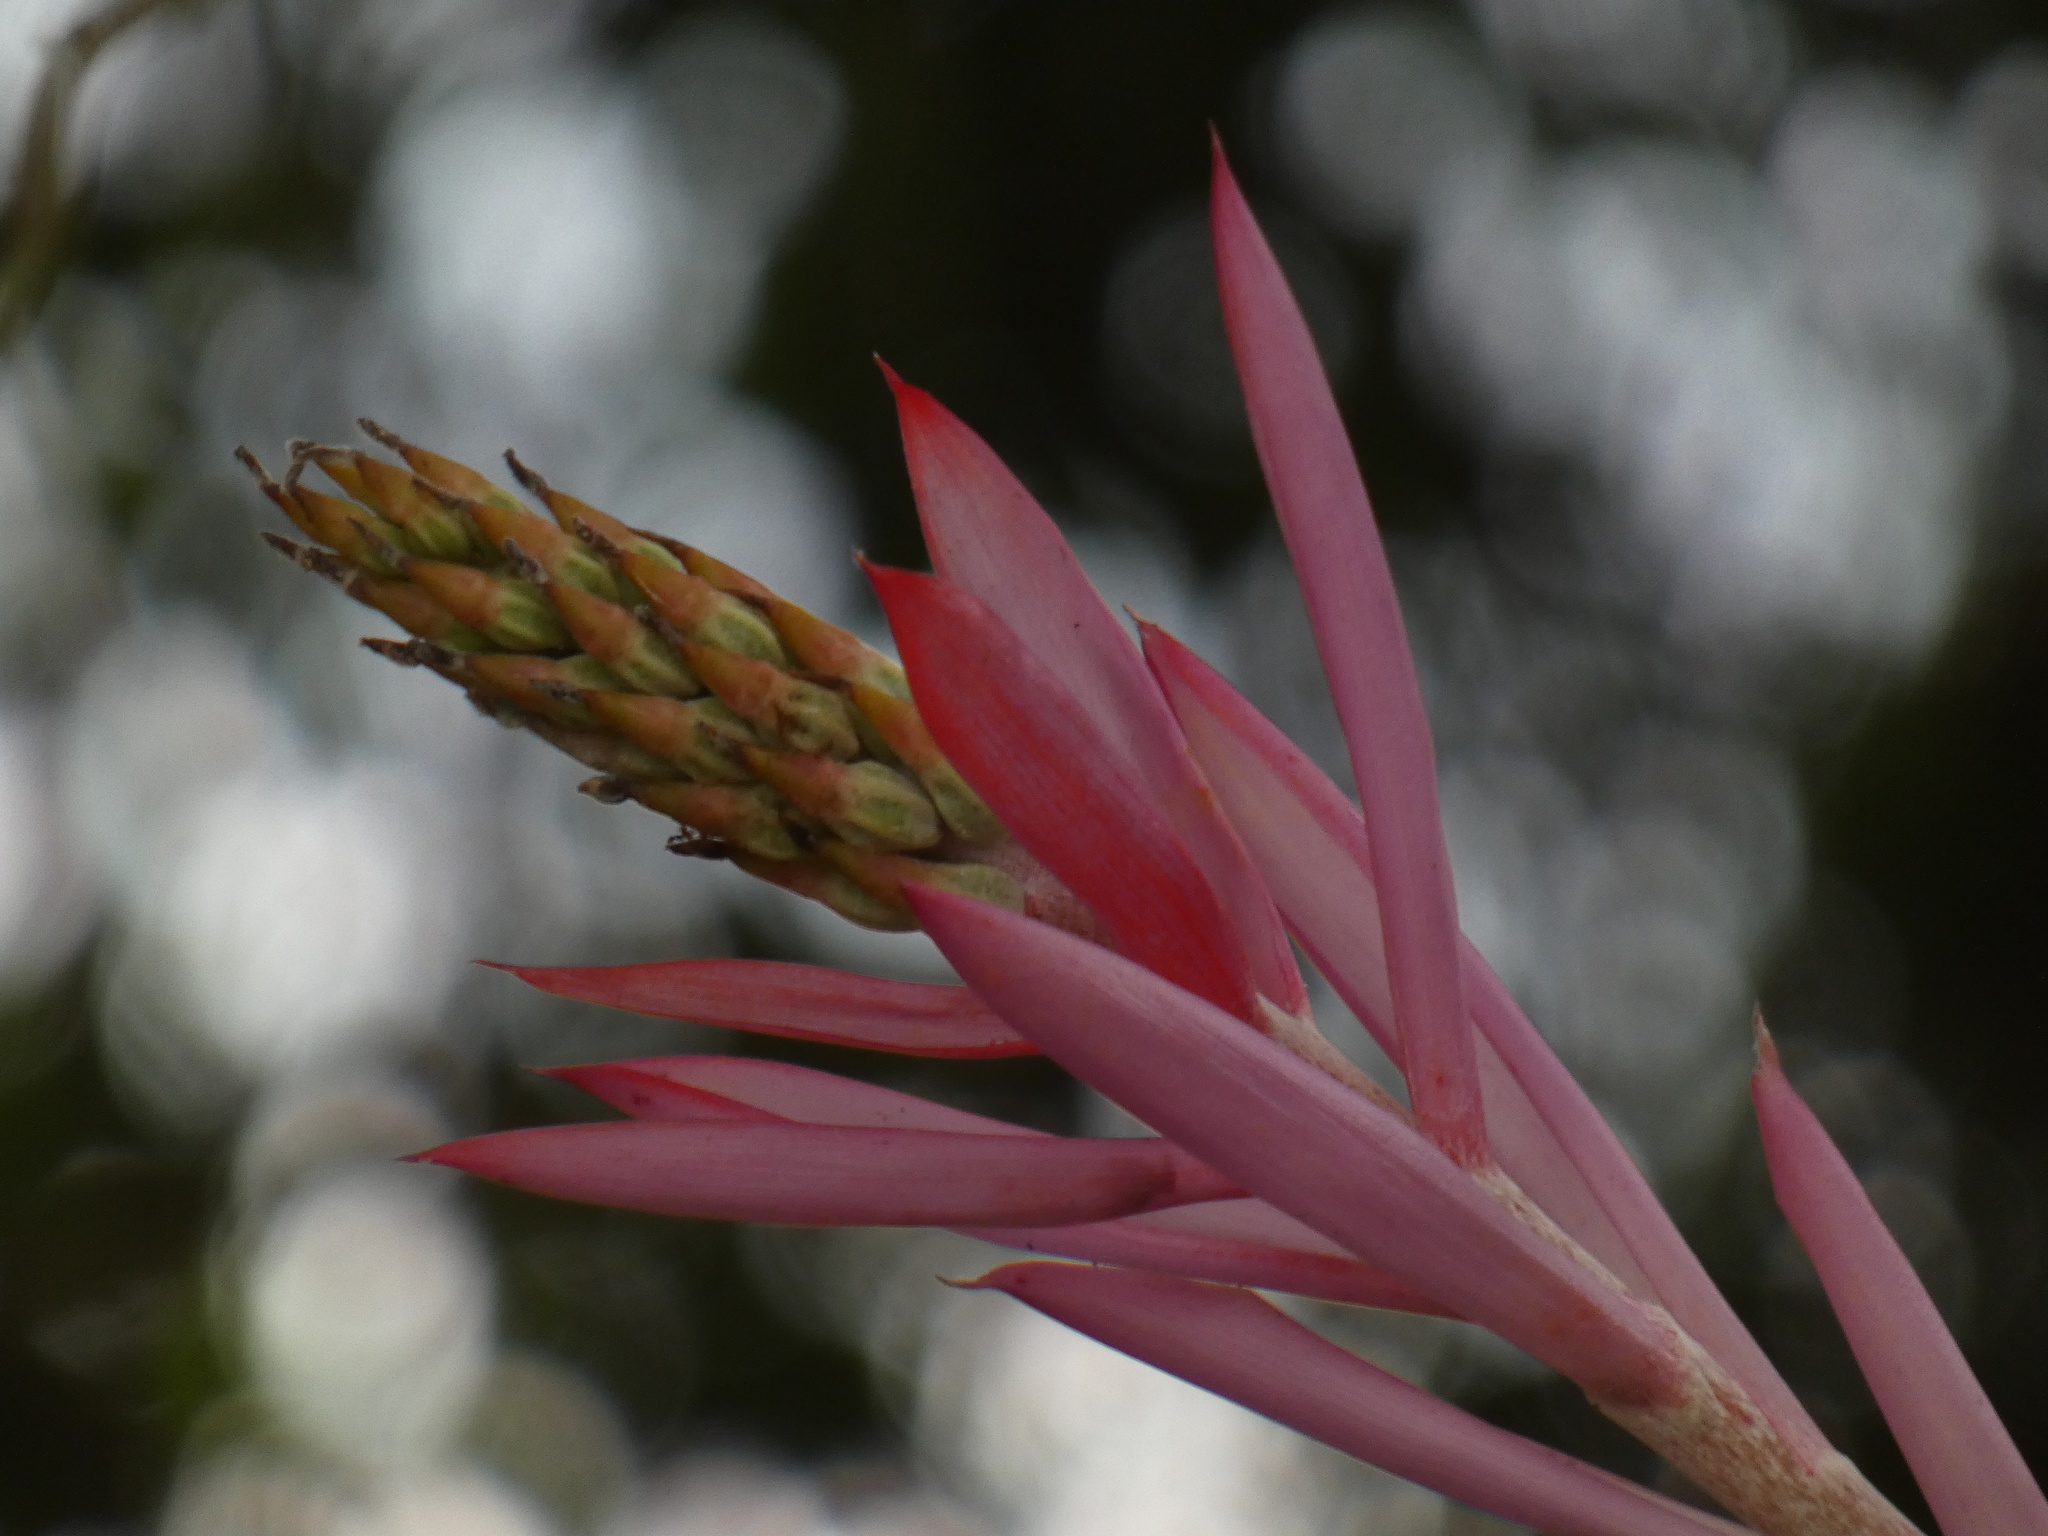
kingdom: Plantae
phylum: Tracheophyta
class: Liliopsida
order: Poales
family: Bromeliaceae
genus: Aechmea
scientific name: Aechmea nudicaulis
